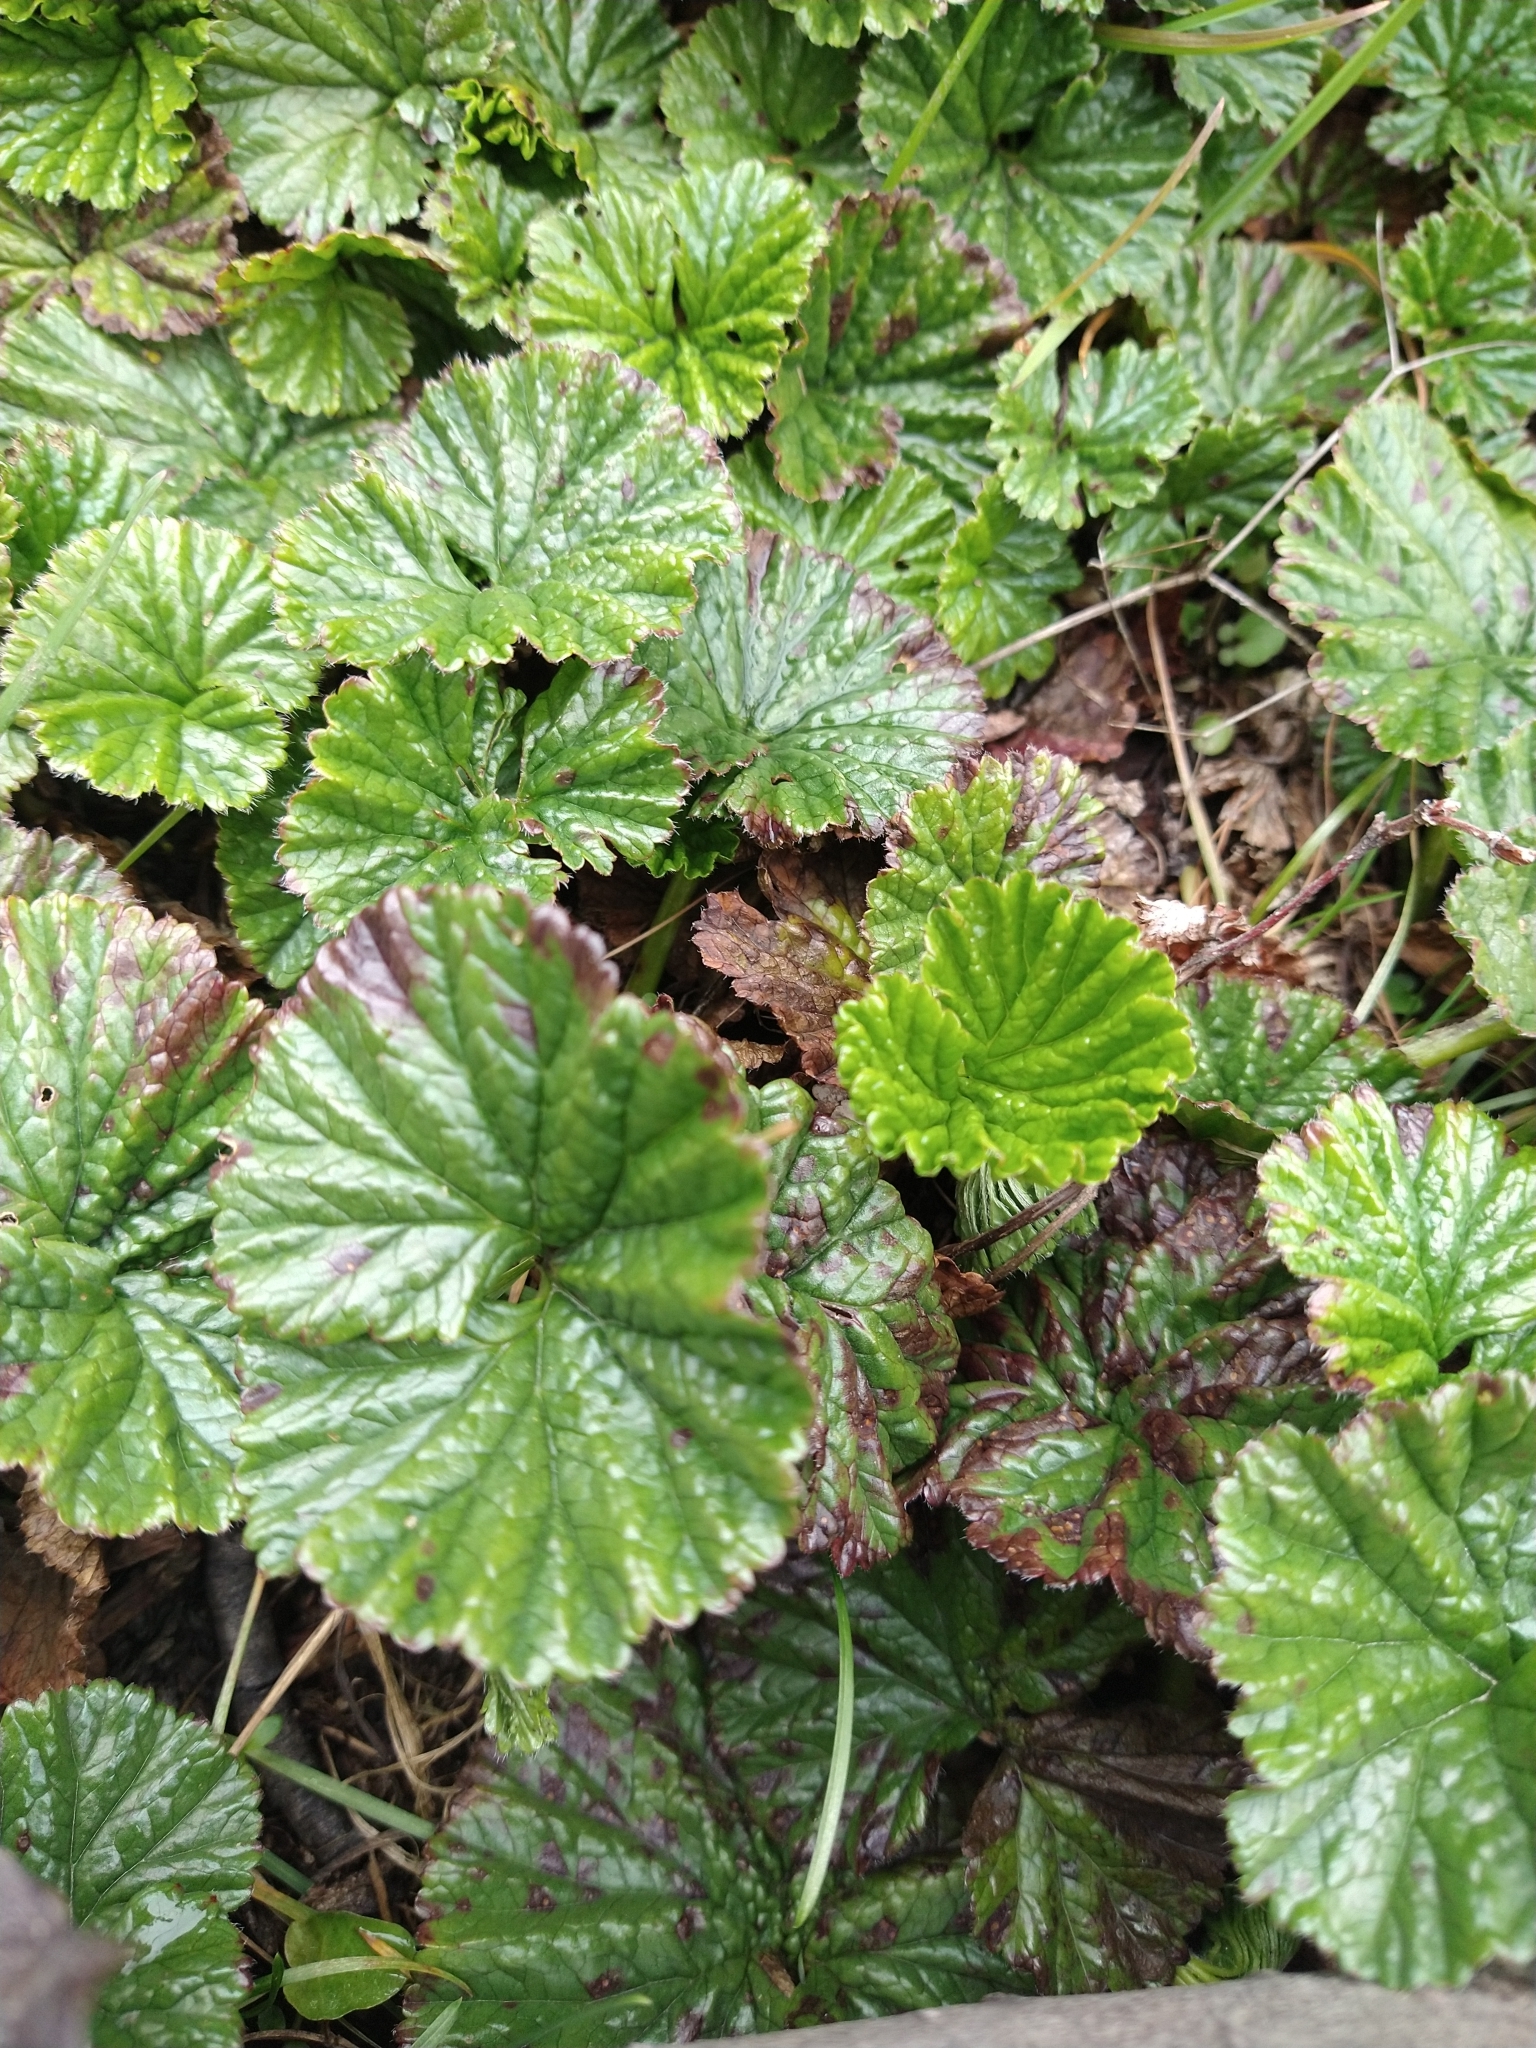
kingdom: Plantae
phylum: Tracheophyta
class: Magnoliopsida
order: Gunnerales
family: Gunneraceae
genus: Gunnera
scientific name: Gunnera magellanica
